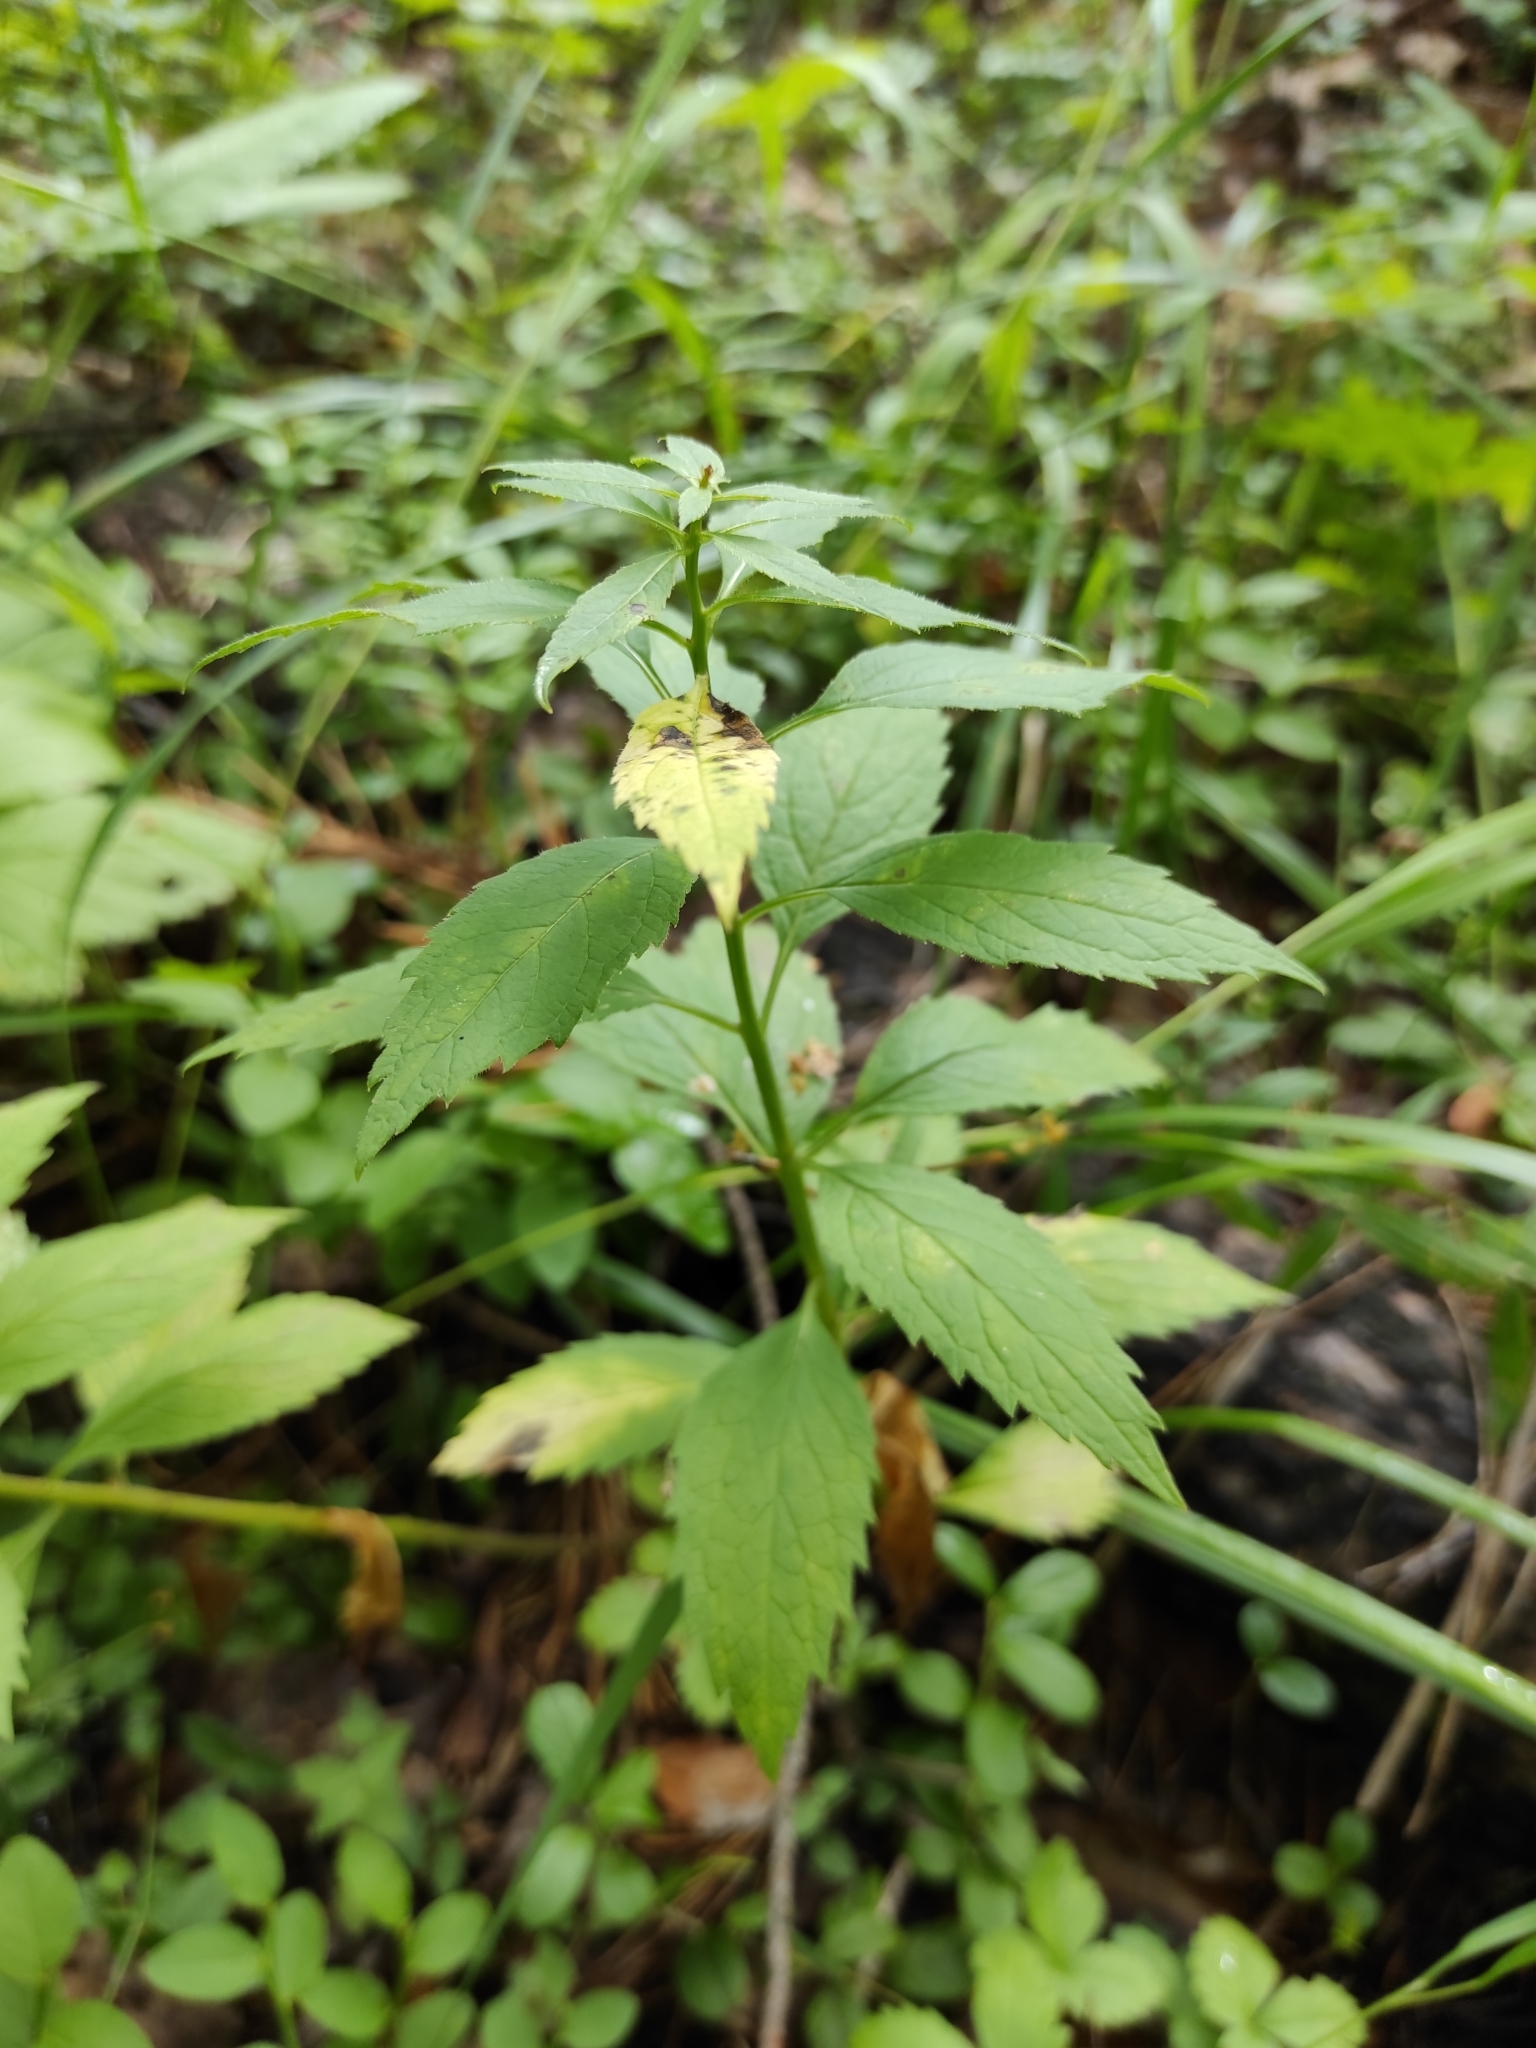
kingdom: Plantae
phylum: Tracheophyta
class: Magnoliopsida
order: Asterales
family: Campanulaceae
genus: Adenophora
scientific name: Adenophora liliifolia
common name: Lilyleaf ladybells
